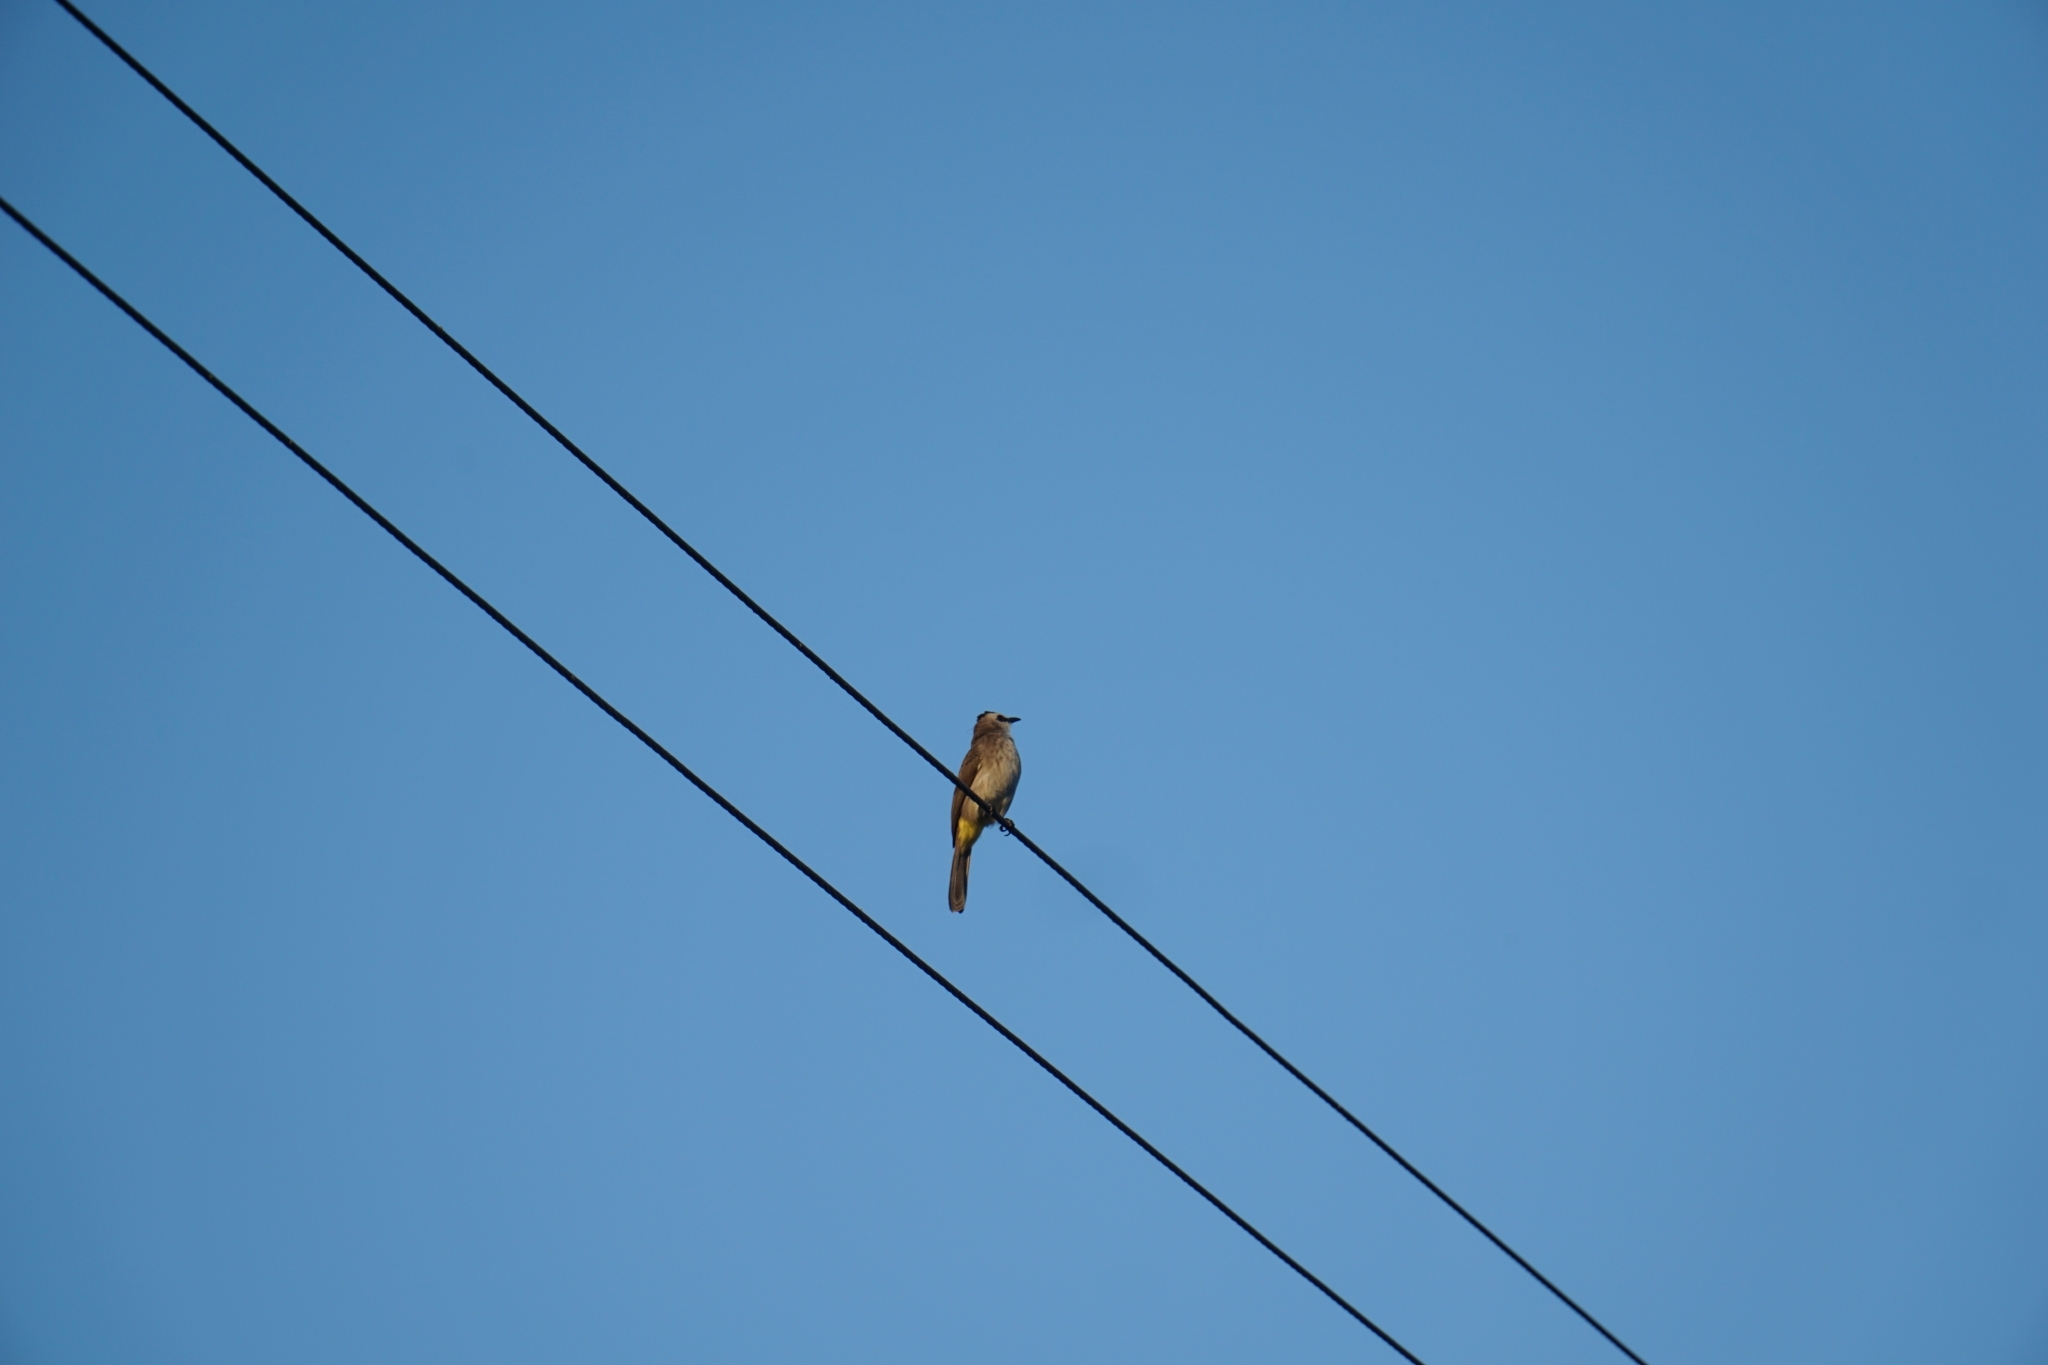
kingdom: Animalia
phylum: Chordata
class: Aves
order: Passeriformes
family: Pycnonotidae
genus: Pycnonotus
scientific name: Pycnonotus goiavier
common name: Yellow-vented bulbul
